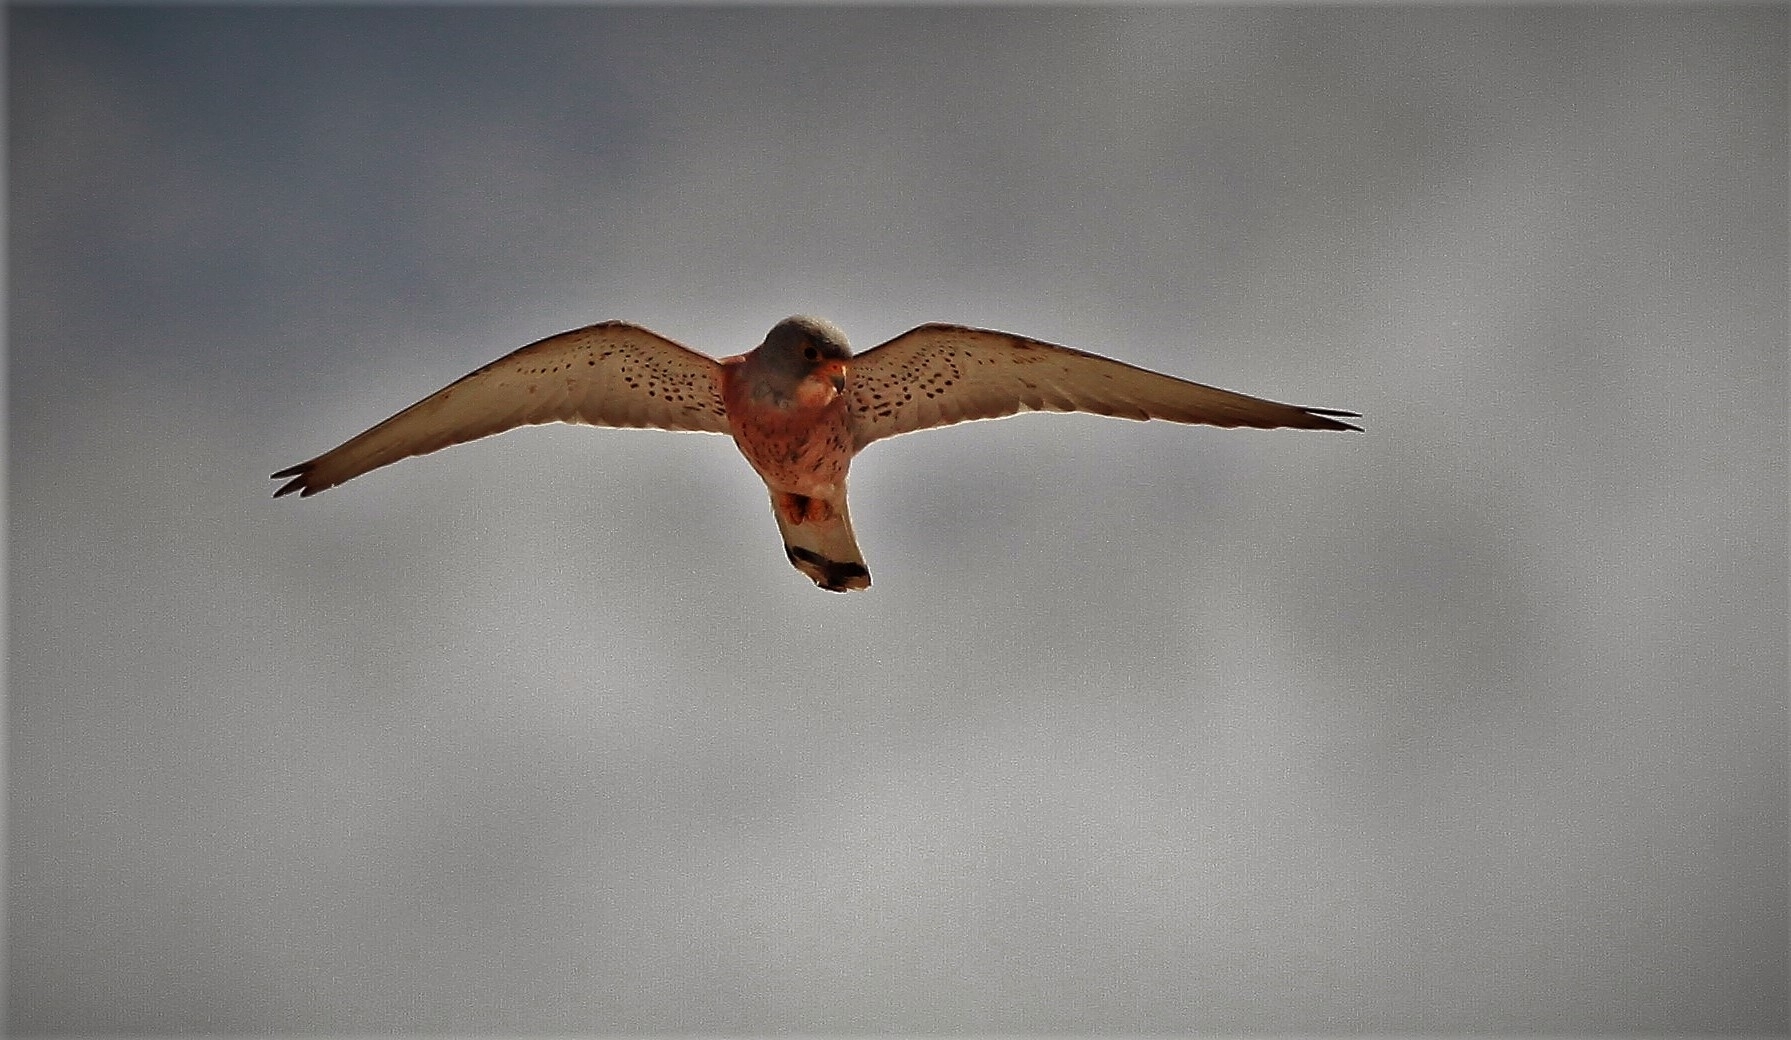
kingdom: Animalia
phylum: Chordata
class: Aves
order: Falconiformes
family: Falconidae
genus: Falco
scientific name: Falco naumanni
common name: Lesser kestrel
